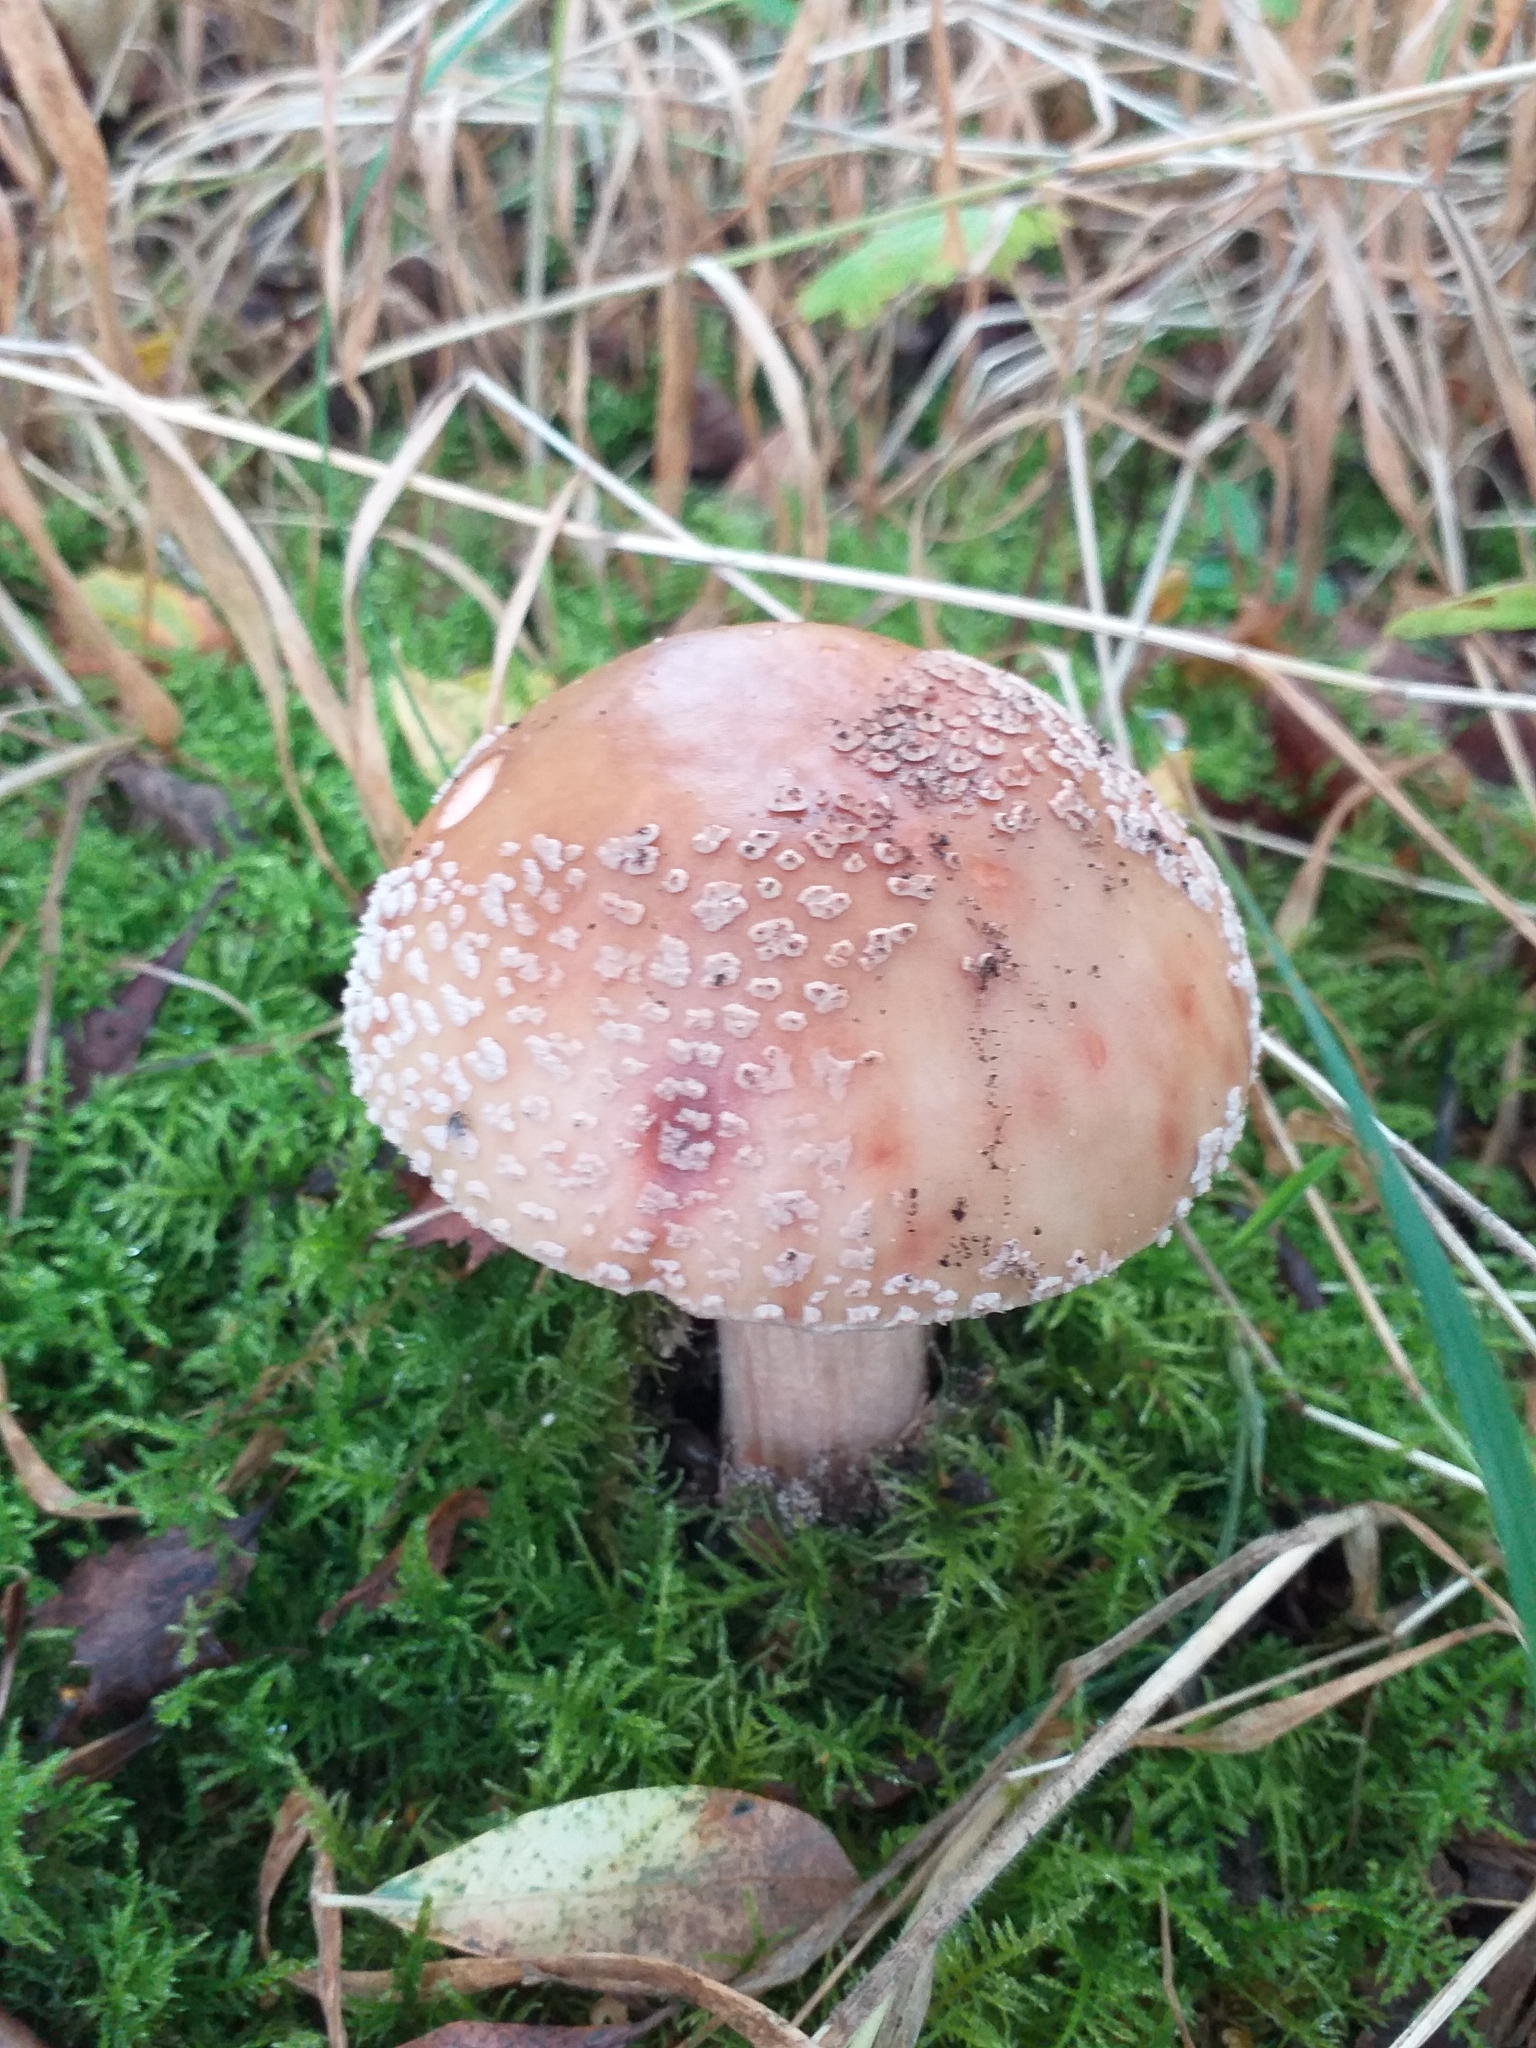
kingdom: Fungi
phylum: Basidiomycota
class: Agaricomycetes
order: Agaricales
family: Amanitaceae
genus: Amanita
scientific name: Amanita rubescens
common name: Blusher
